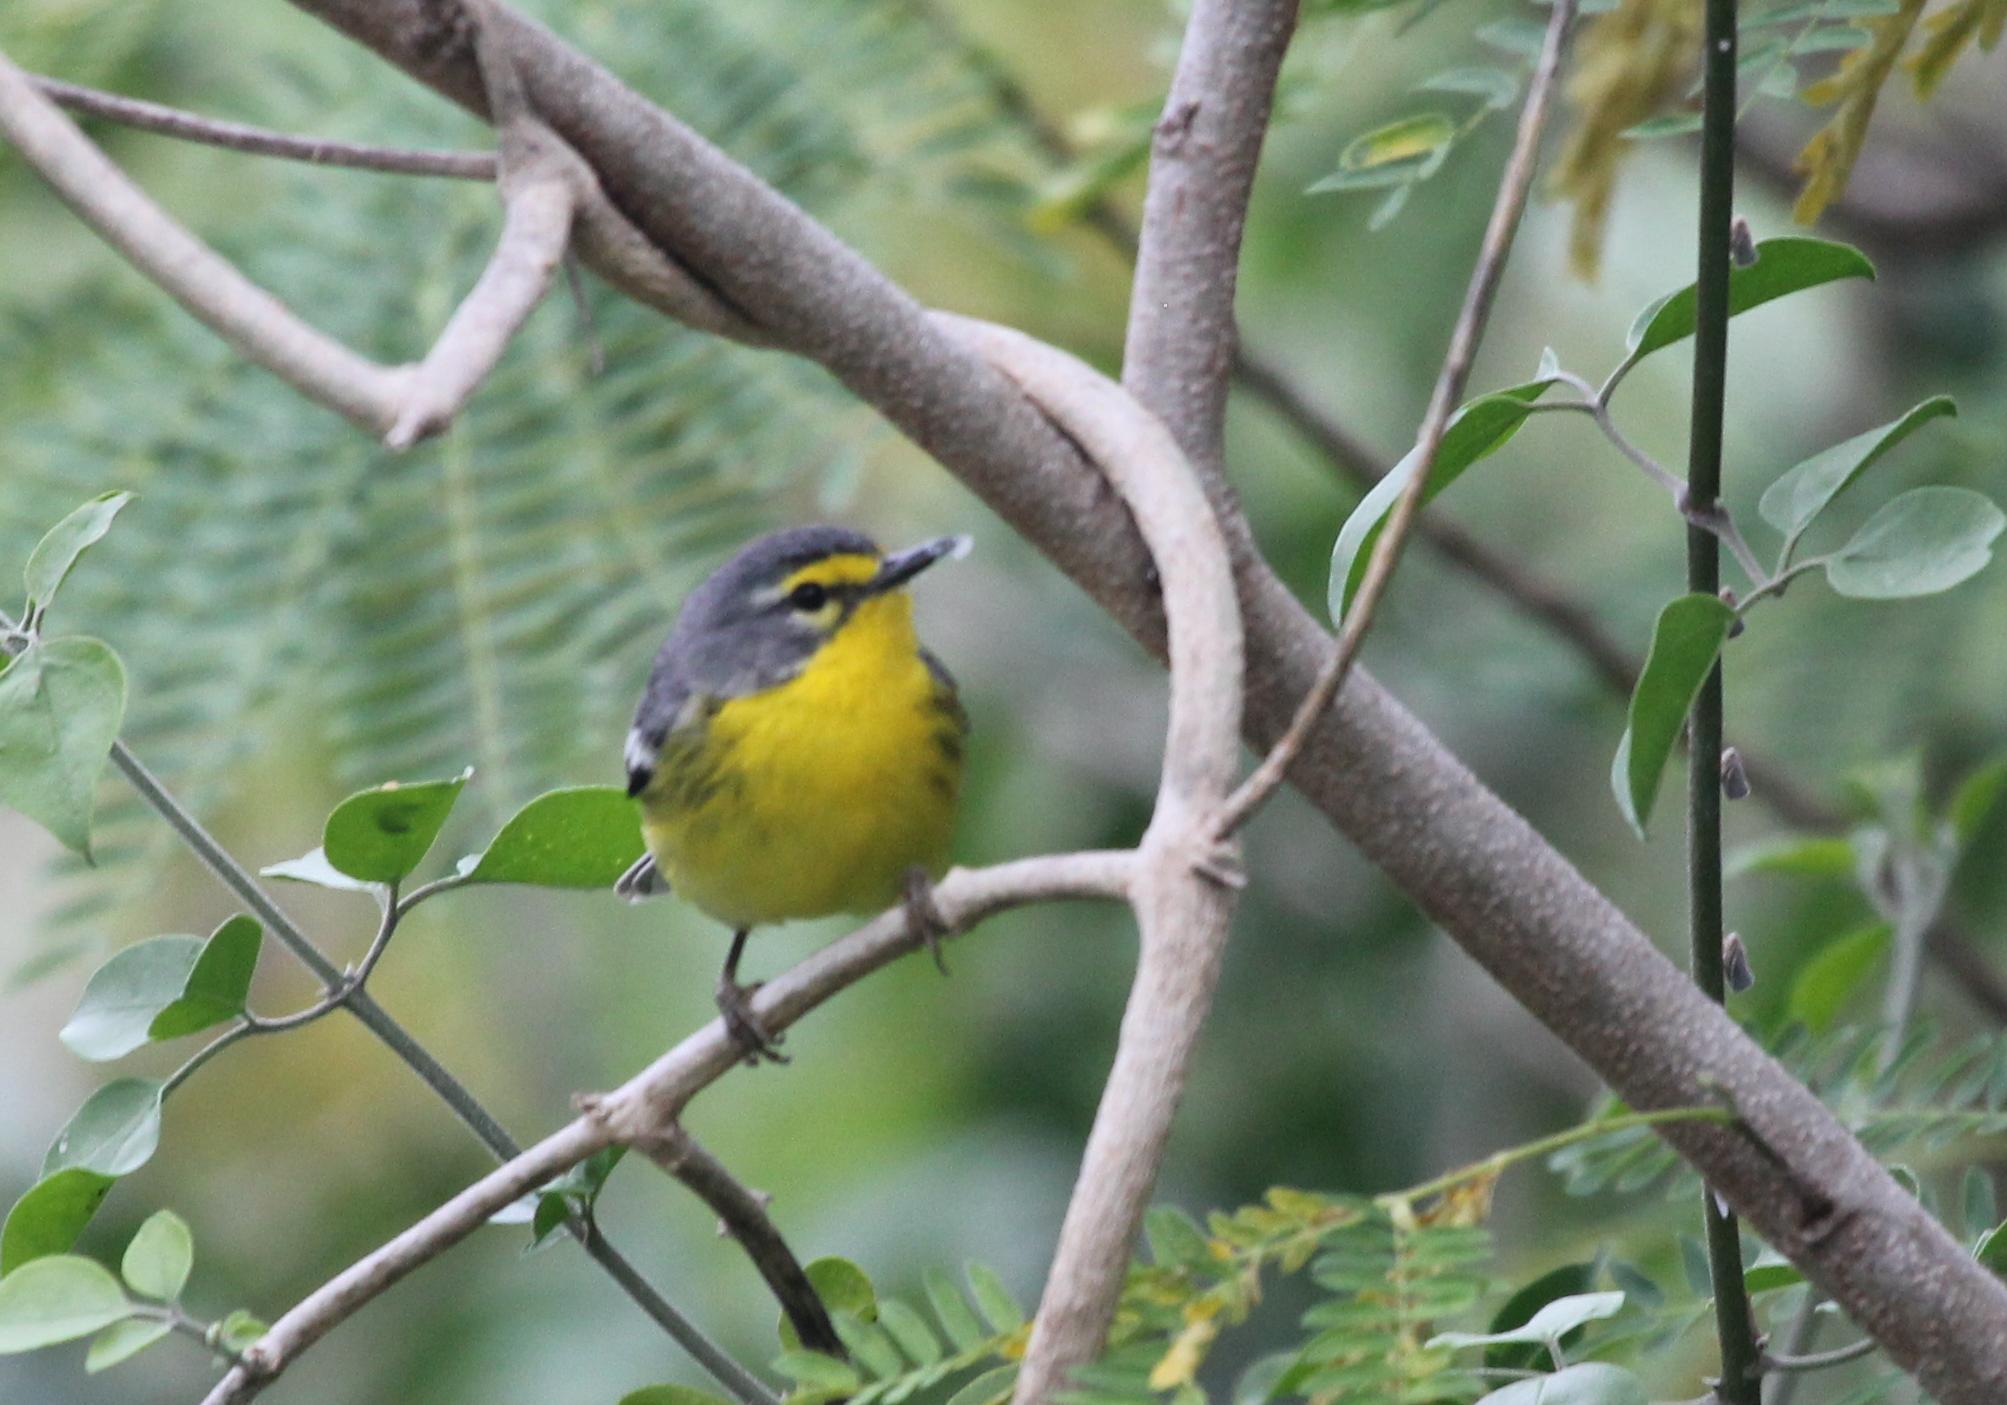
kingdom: Animalia
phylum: Chordata
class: Aves
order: Passeriformes
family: Parulidae
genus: Setophaga
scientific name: Setophaga adelaidae
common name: Adelaide's warbler
